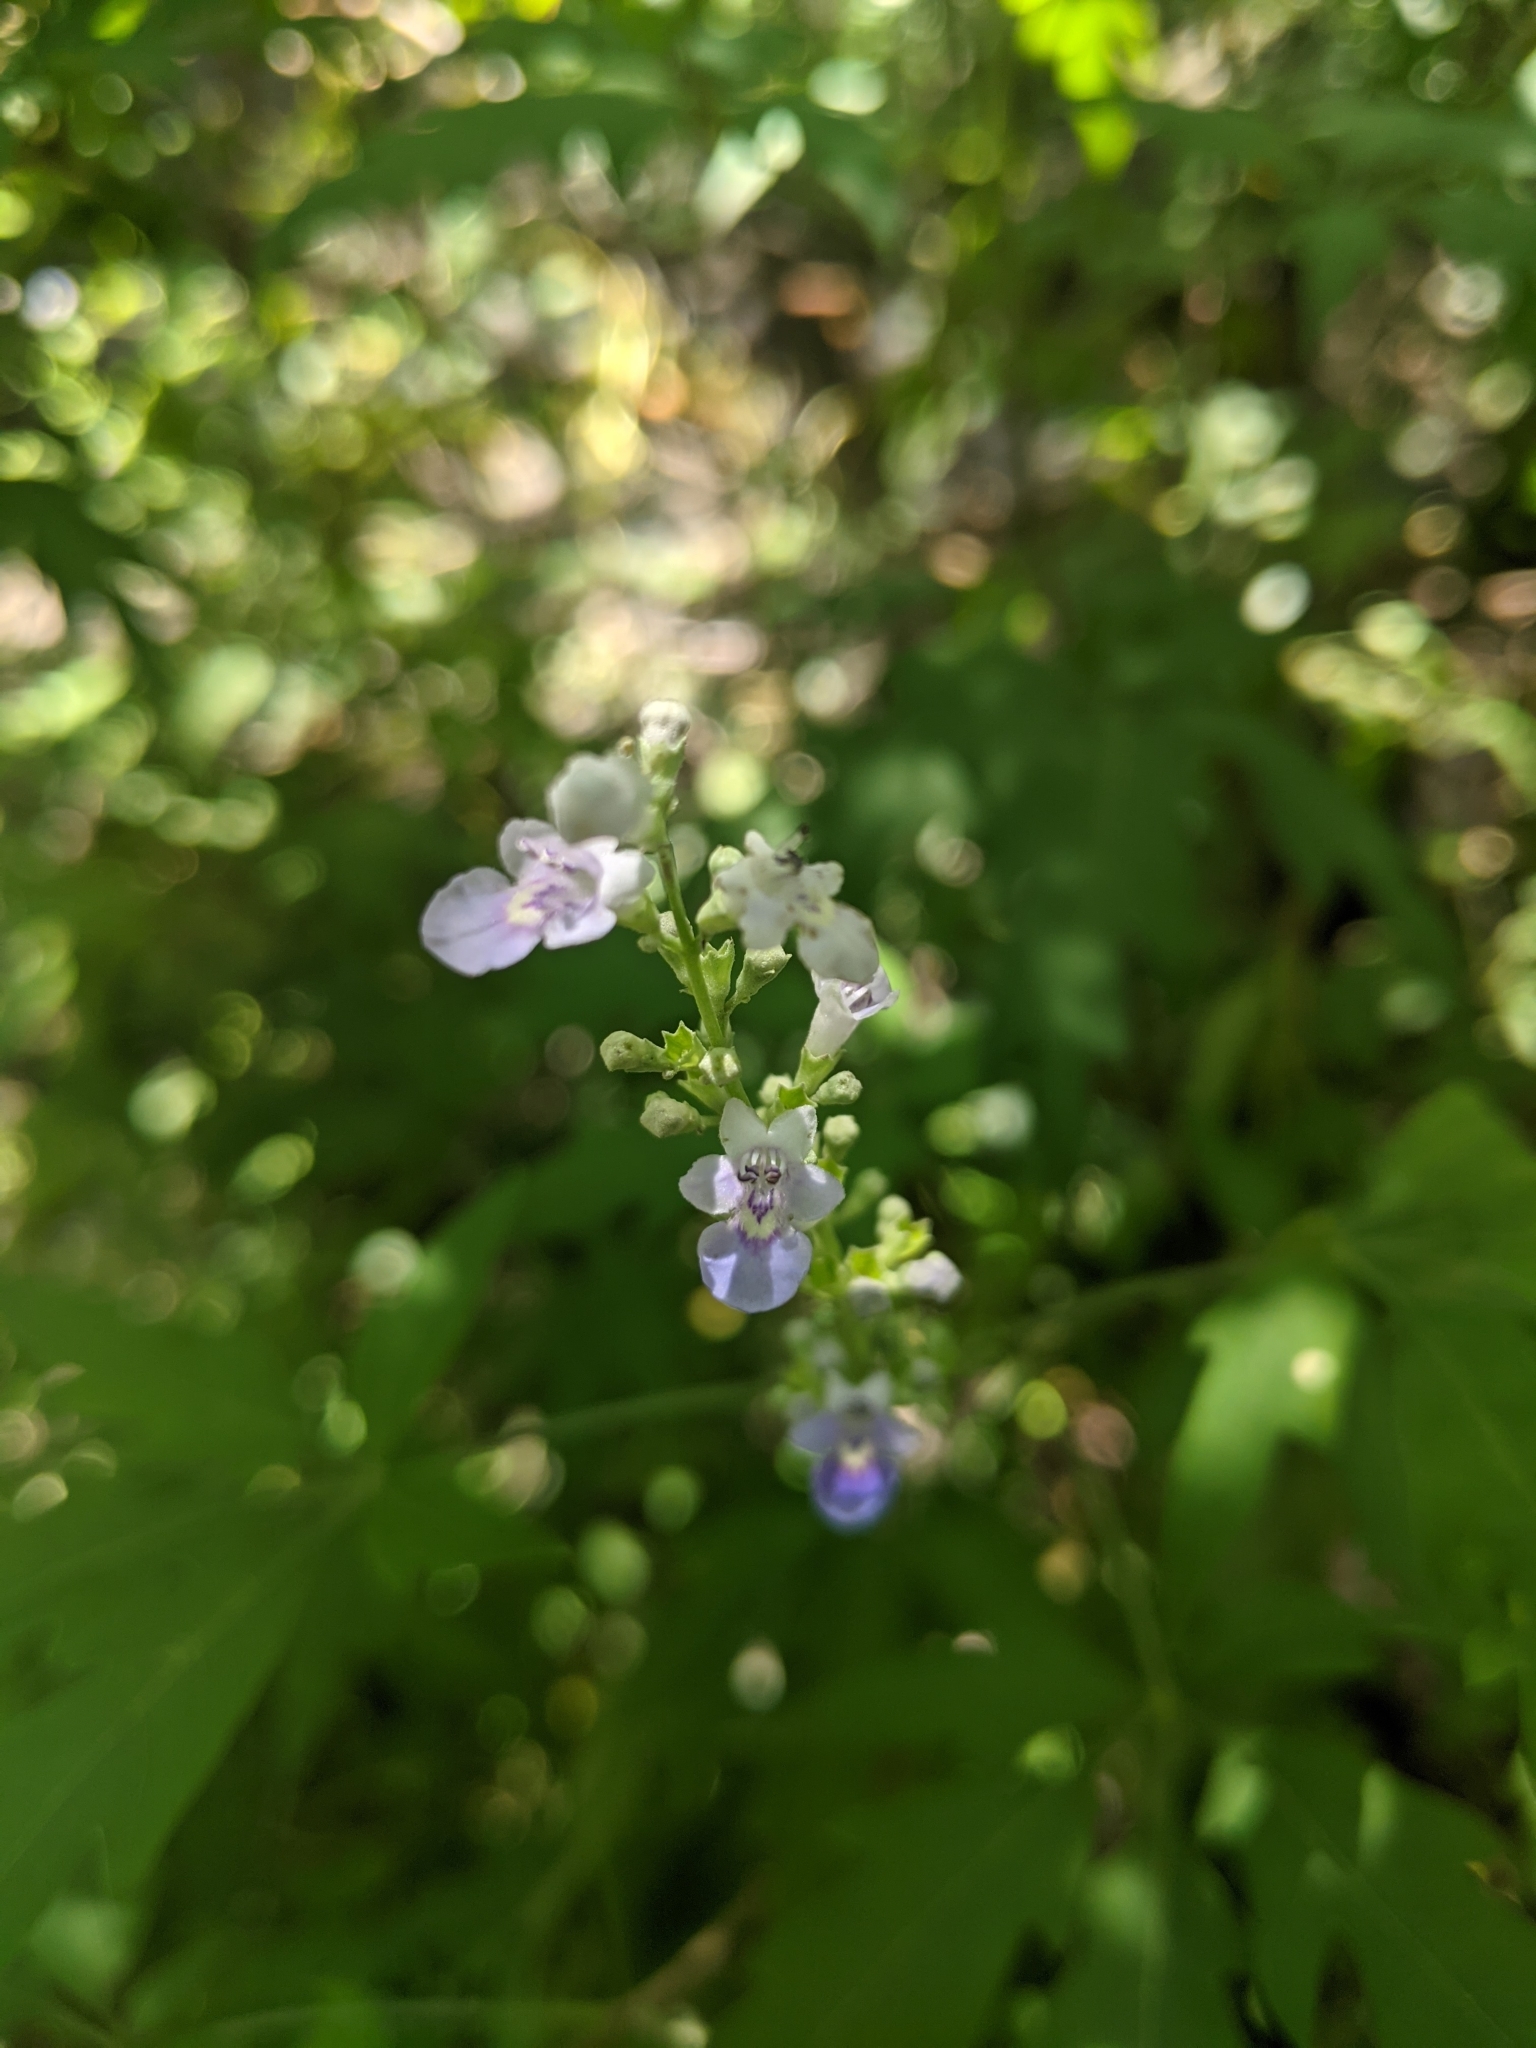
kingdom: Plantae
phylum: Tracheophyta
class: Magnoliopsida
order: Lamiales
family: Lamiaceae
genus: Vitex
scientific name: Vitex negundo
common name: Chinese chastetree
